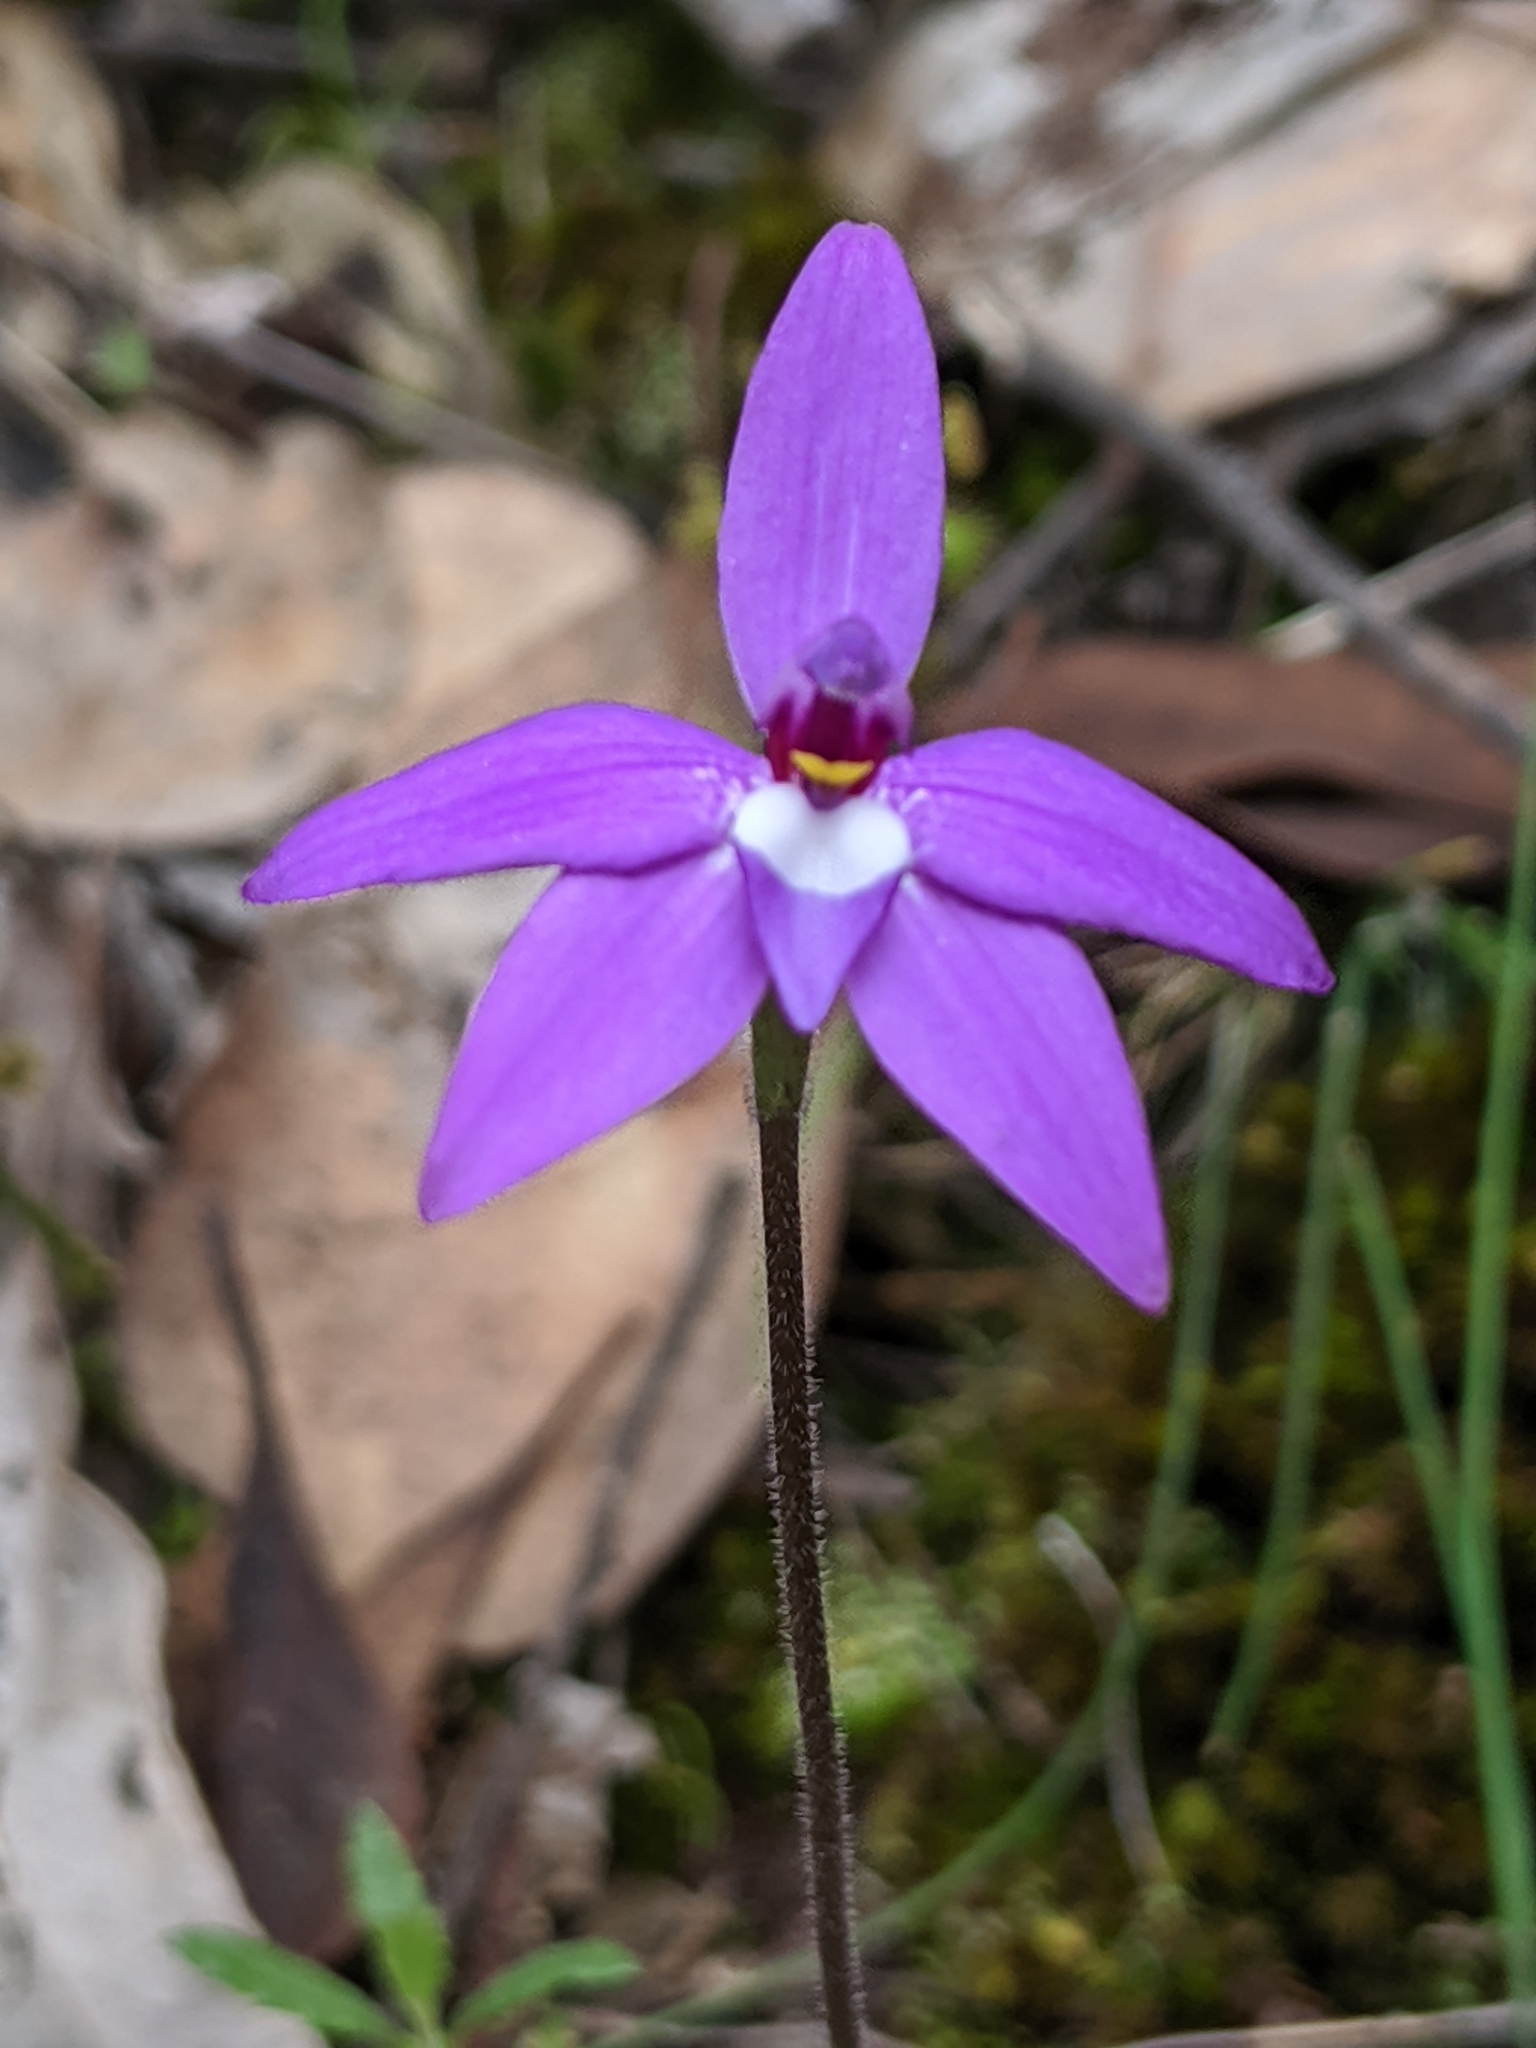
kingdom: Plantae
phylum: Tracheophyta
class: Liliopsida
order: Asparagales
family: Orchidaceae
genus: Caladenia
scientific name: Caladenia major
